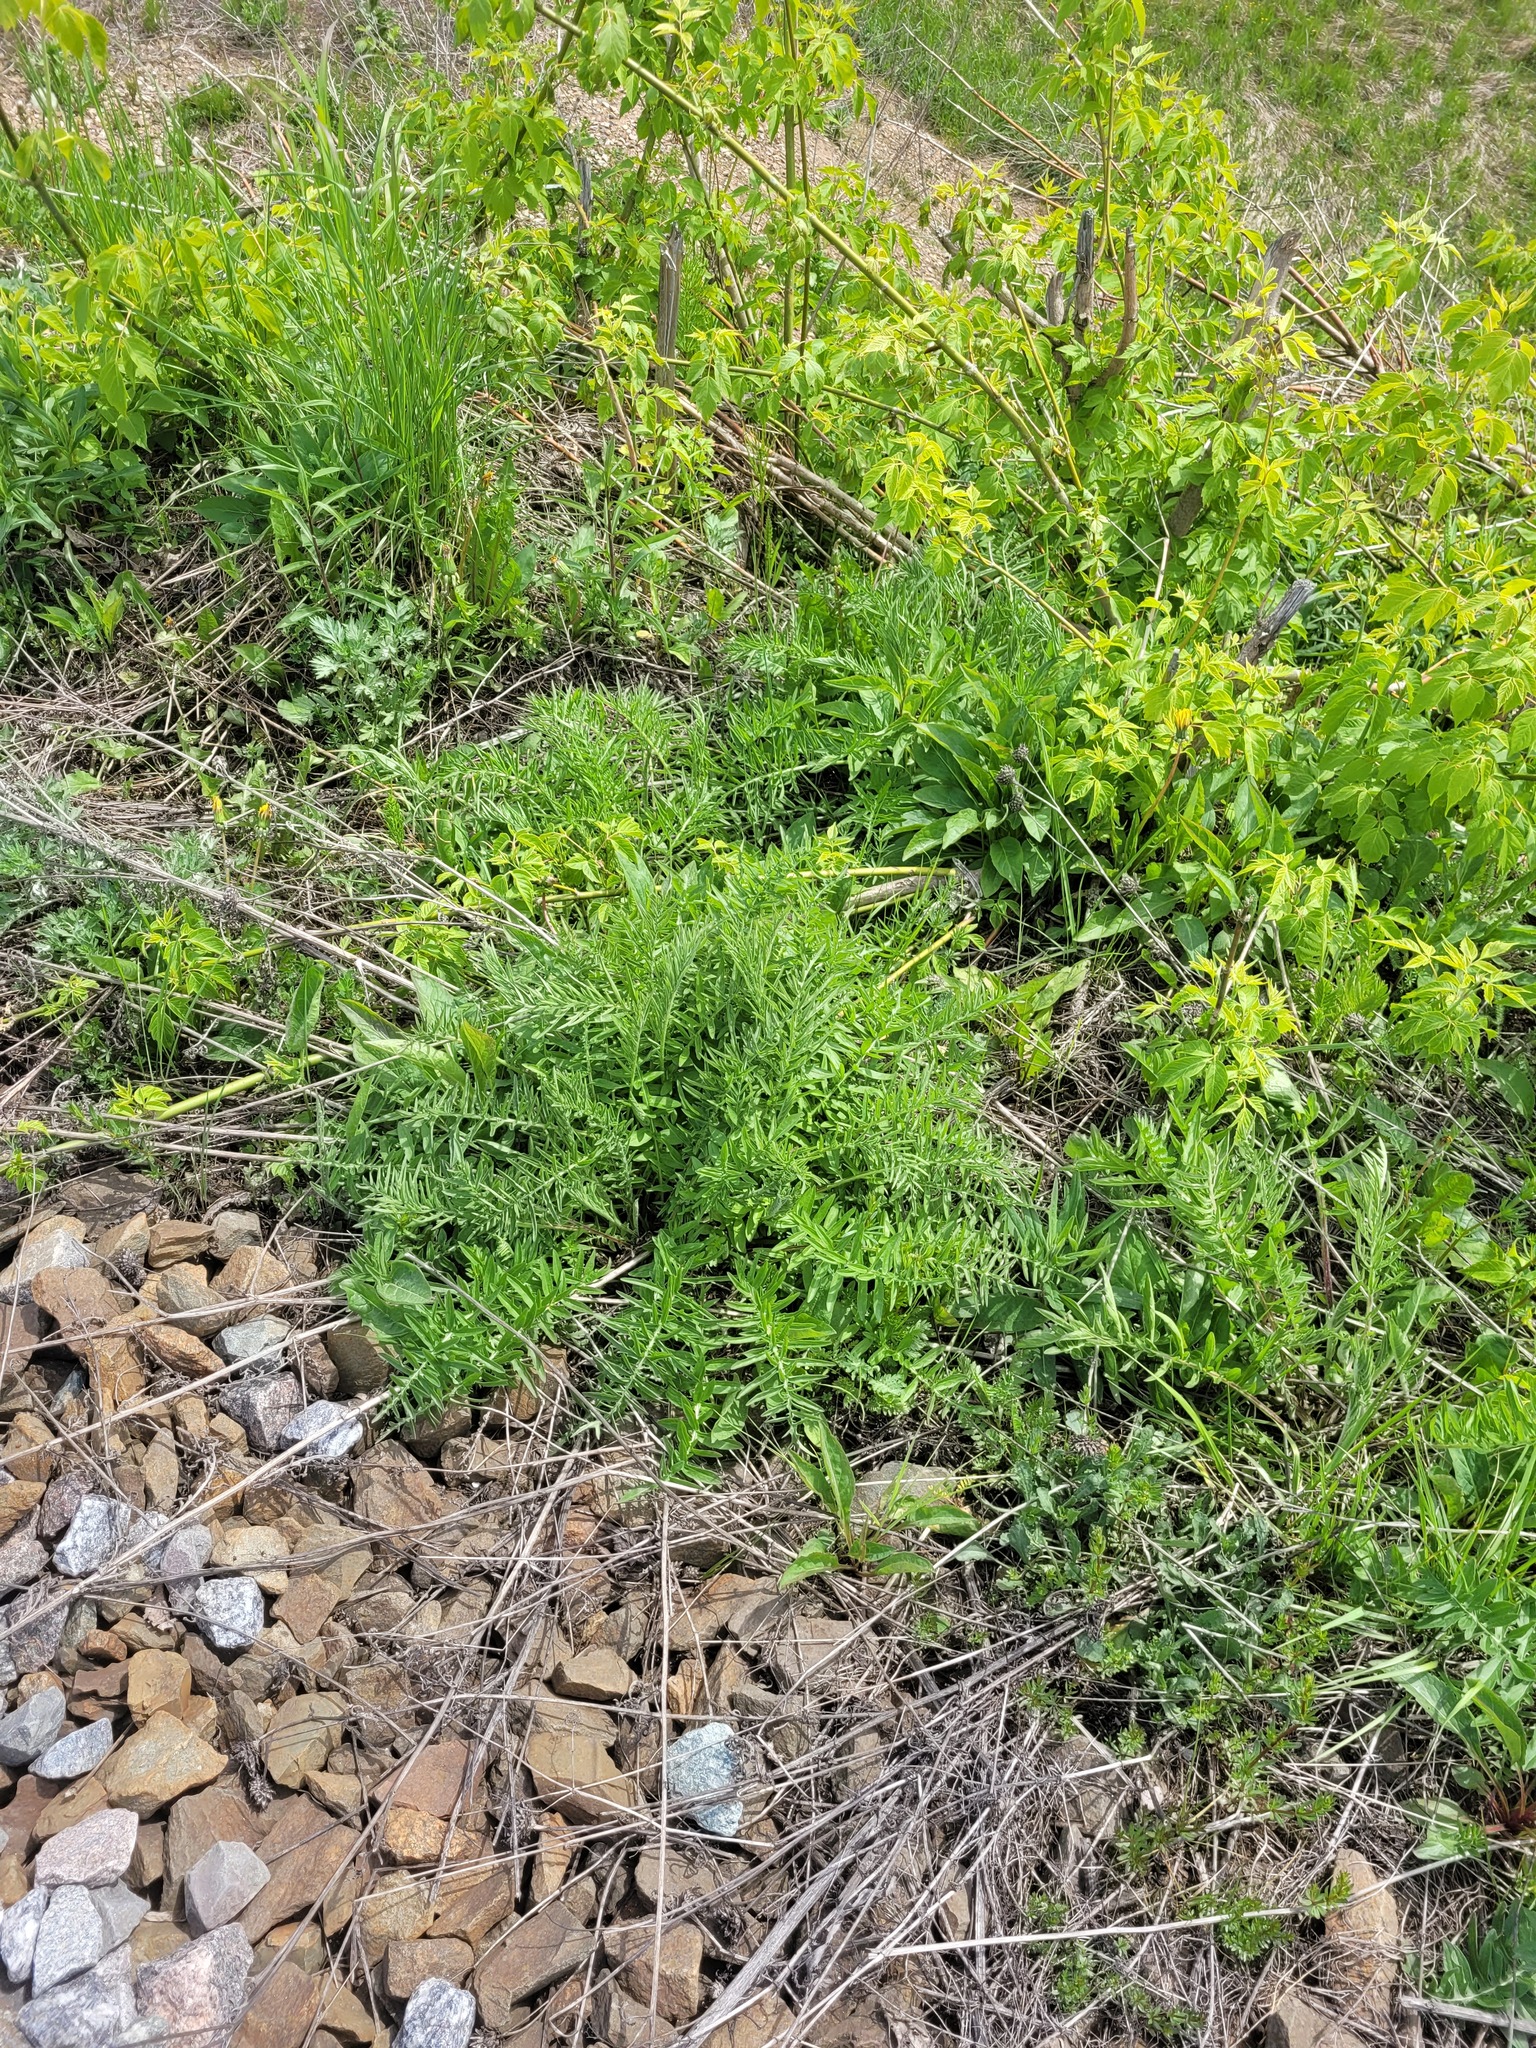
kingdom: Plantae
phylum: Tracheophyta
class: Magnoliopsida
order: Asterales
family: Asteraceae
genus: Centaurea
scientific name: Centaurea scabiosa
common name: Greater knapweed
